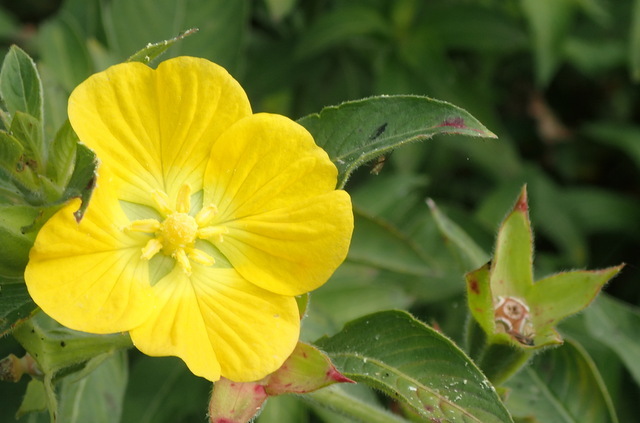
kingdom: Plantae
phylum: Tracheophyta
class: Magnoliopsida
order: Myrtales
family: Onagraceae
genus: Ludwigia
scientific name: Ludwigia peruviana
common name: Peruvian primrose-willow
